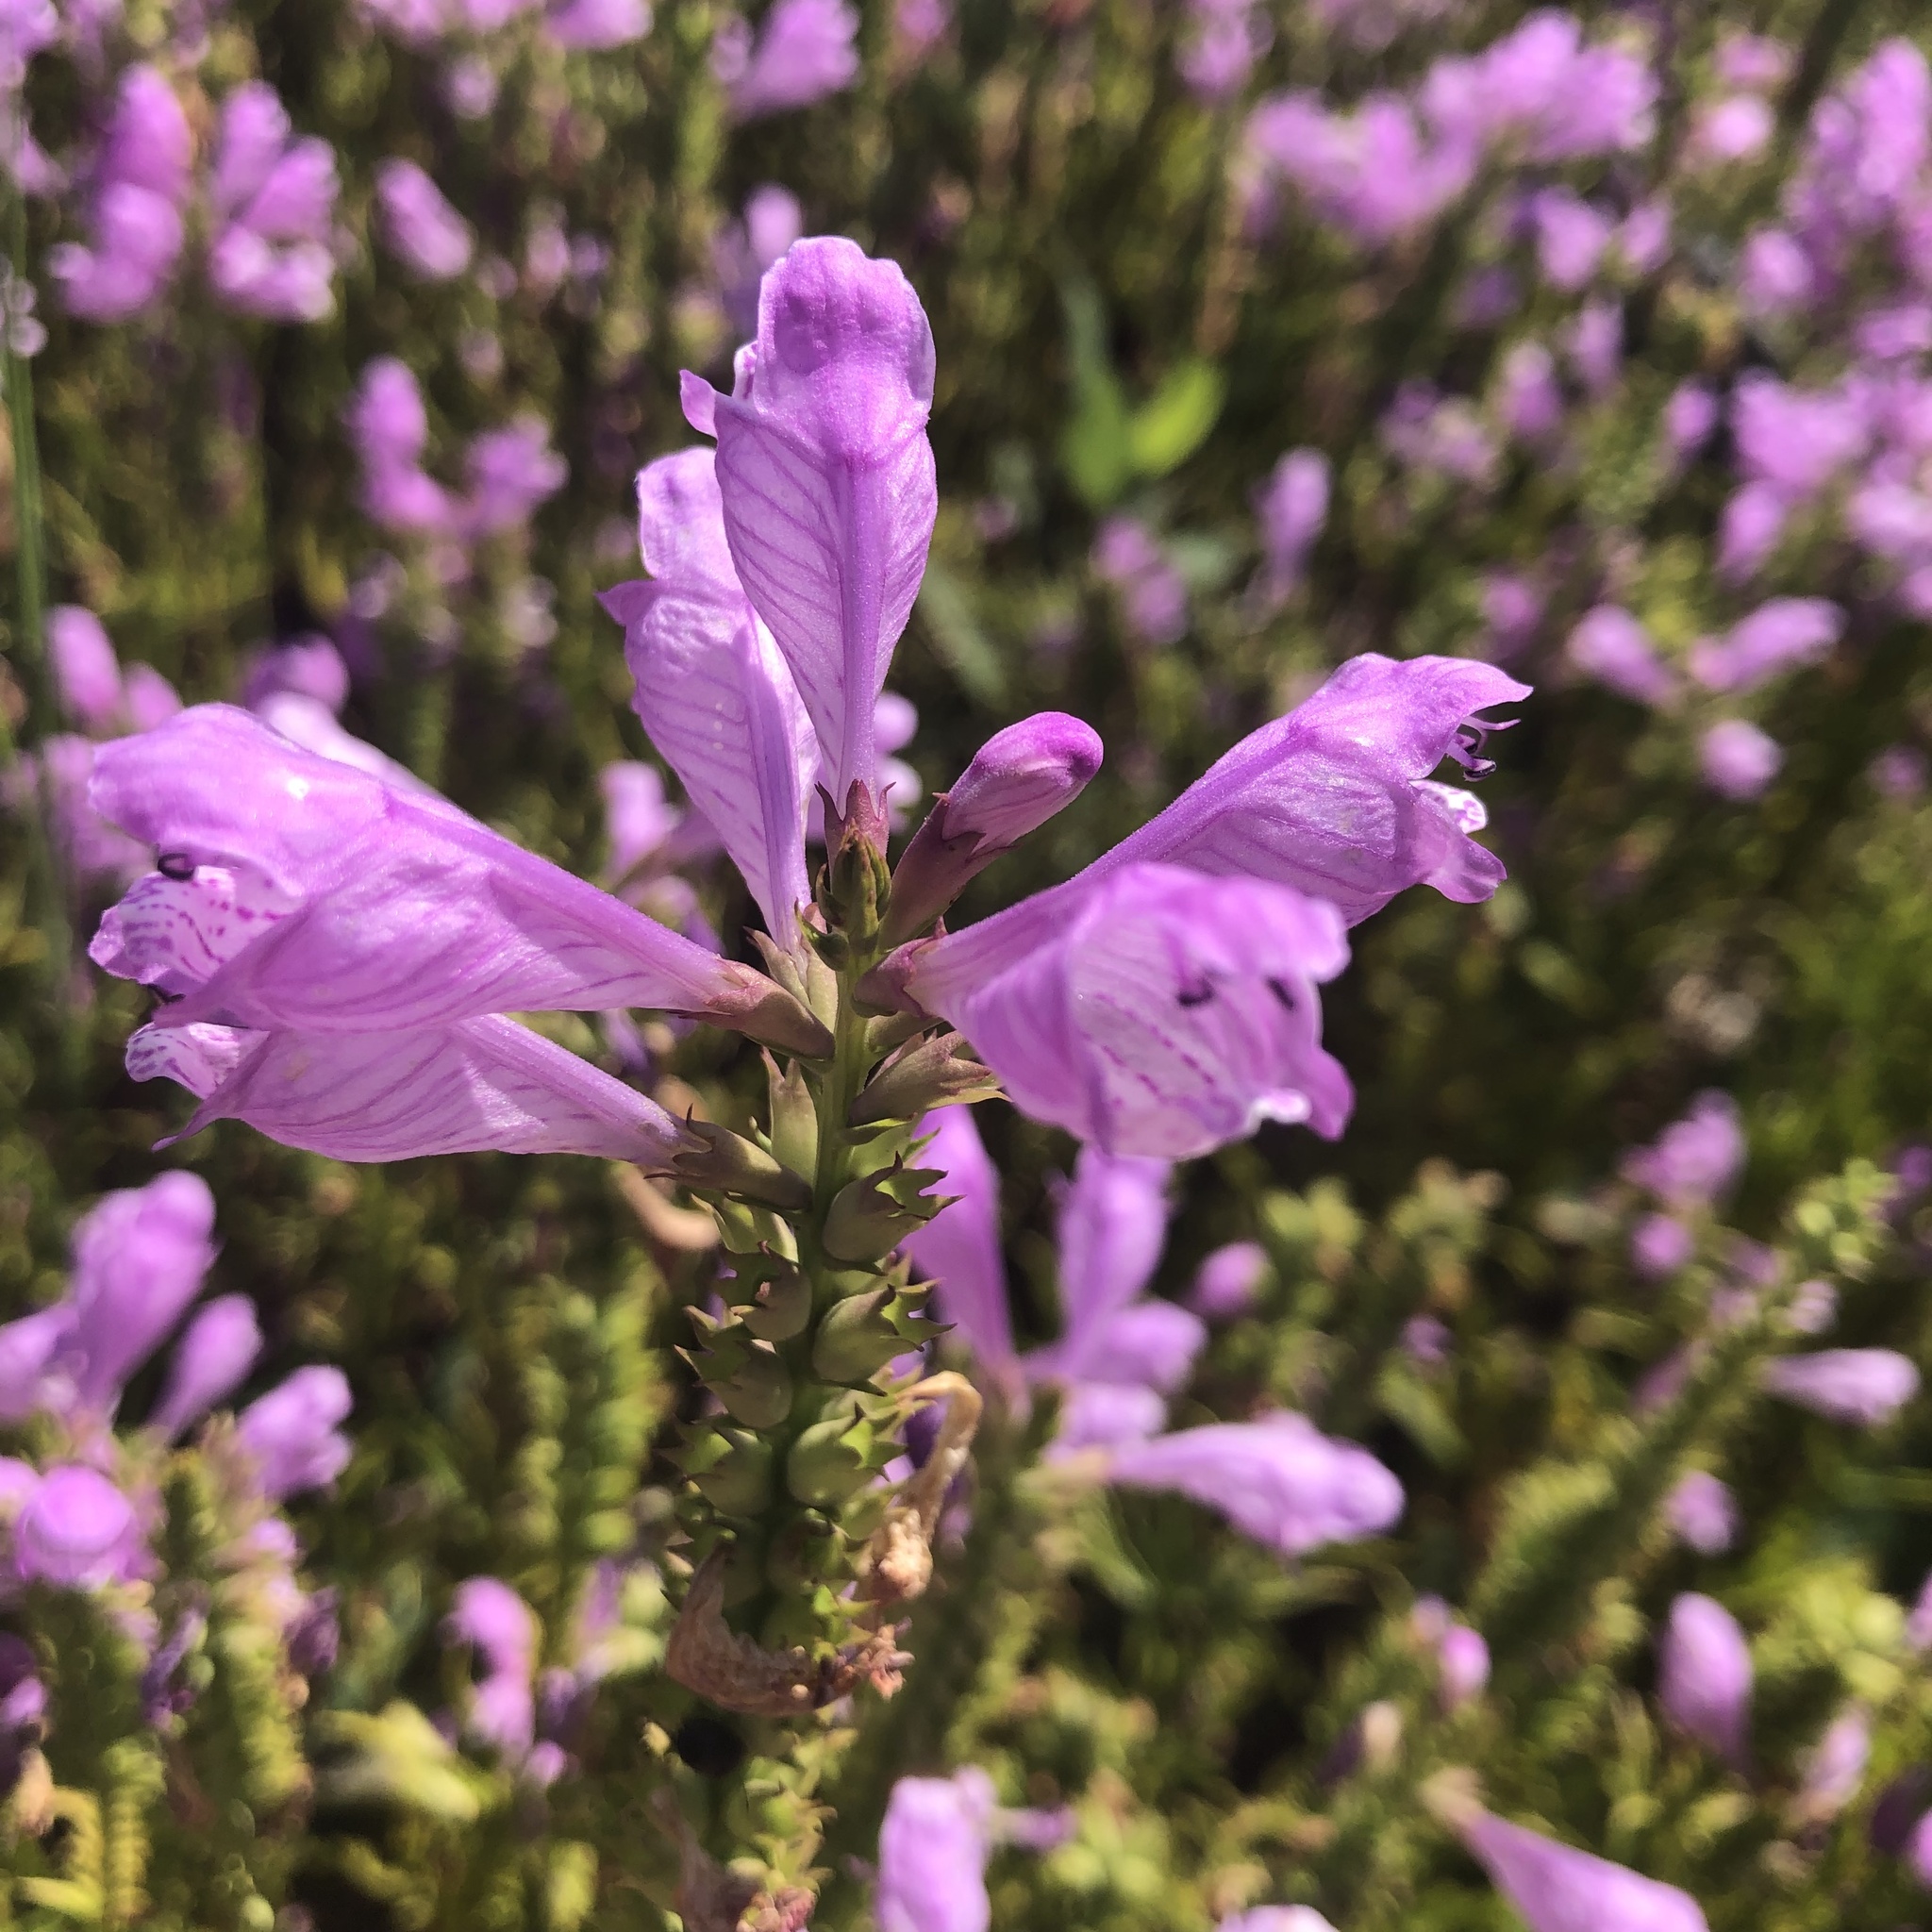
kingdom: Plantae
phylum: Tracheophyta
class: Magnoliopsida
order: Lamiales
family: Lamiaceae
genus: Physostegia
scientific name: Physostegia virginiana
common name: Obedient-plant
